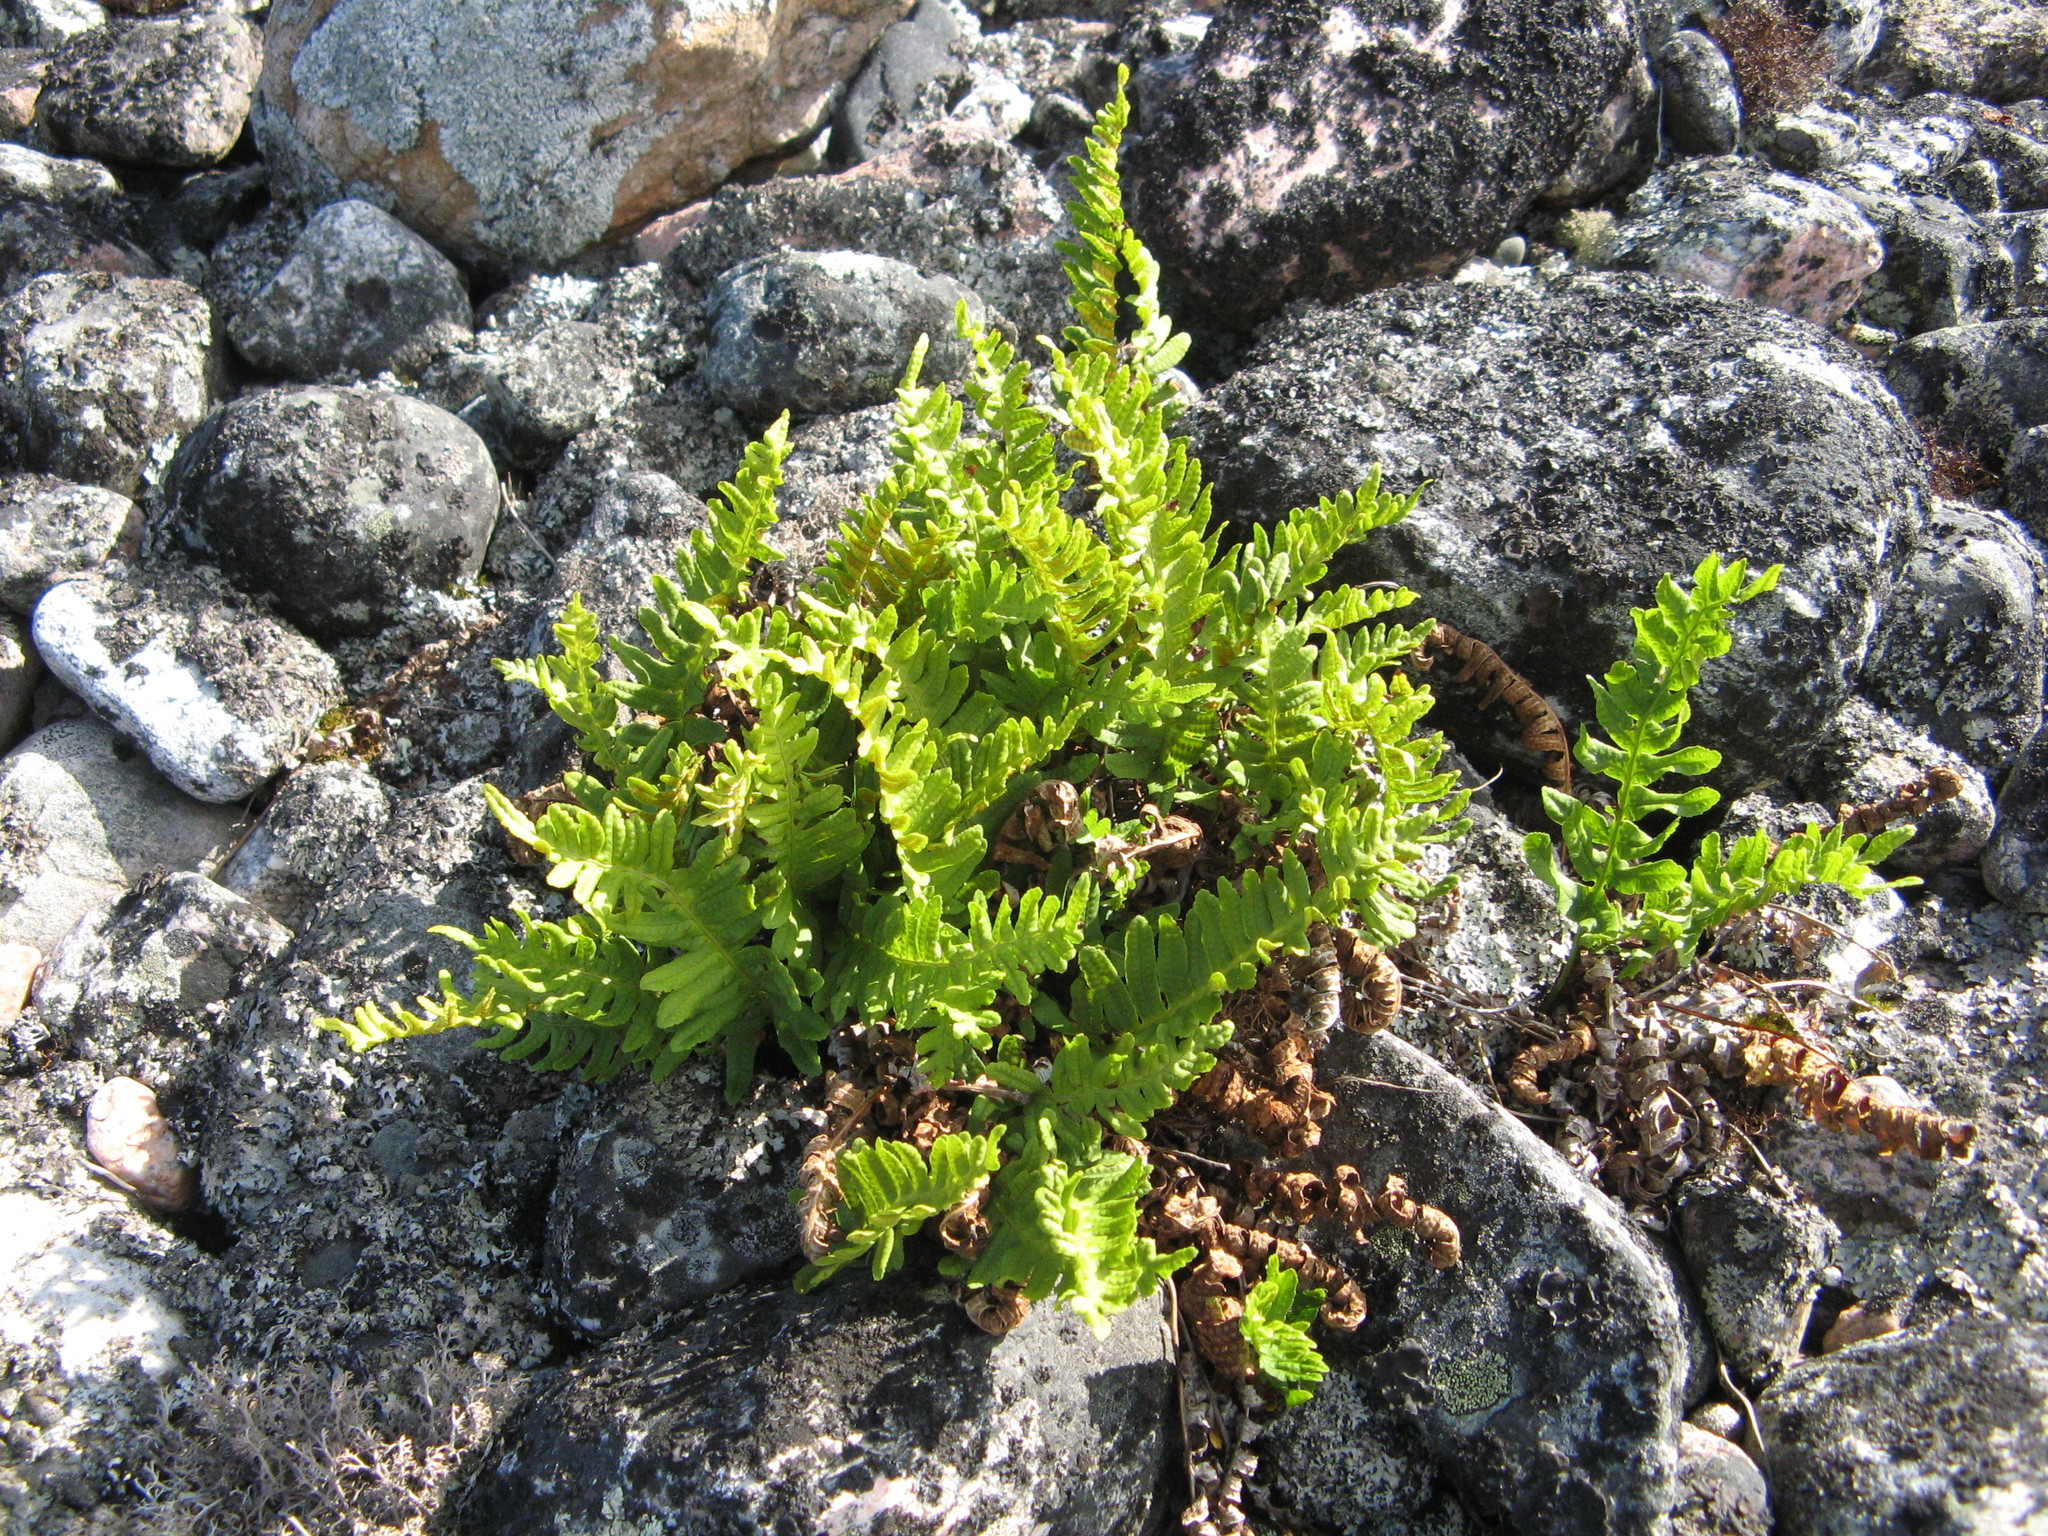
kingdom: Plantae
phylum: Tracheophyta
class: Polypodiopsida
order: Polypodiales
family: Polypodiaceae
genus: Polypodium
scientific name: Polypodium vulgare
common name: Common polypody
